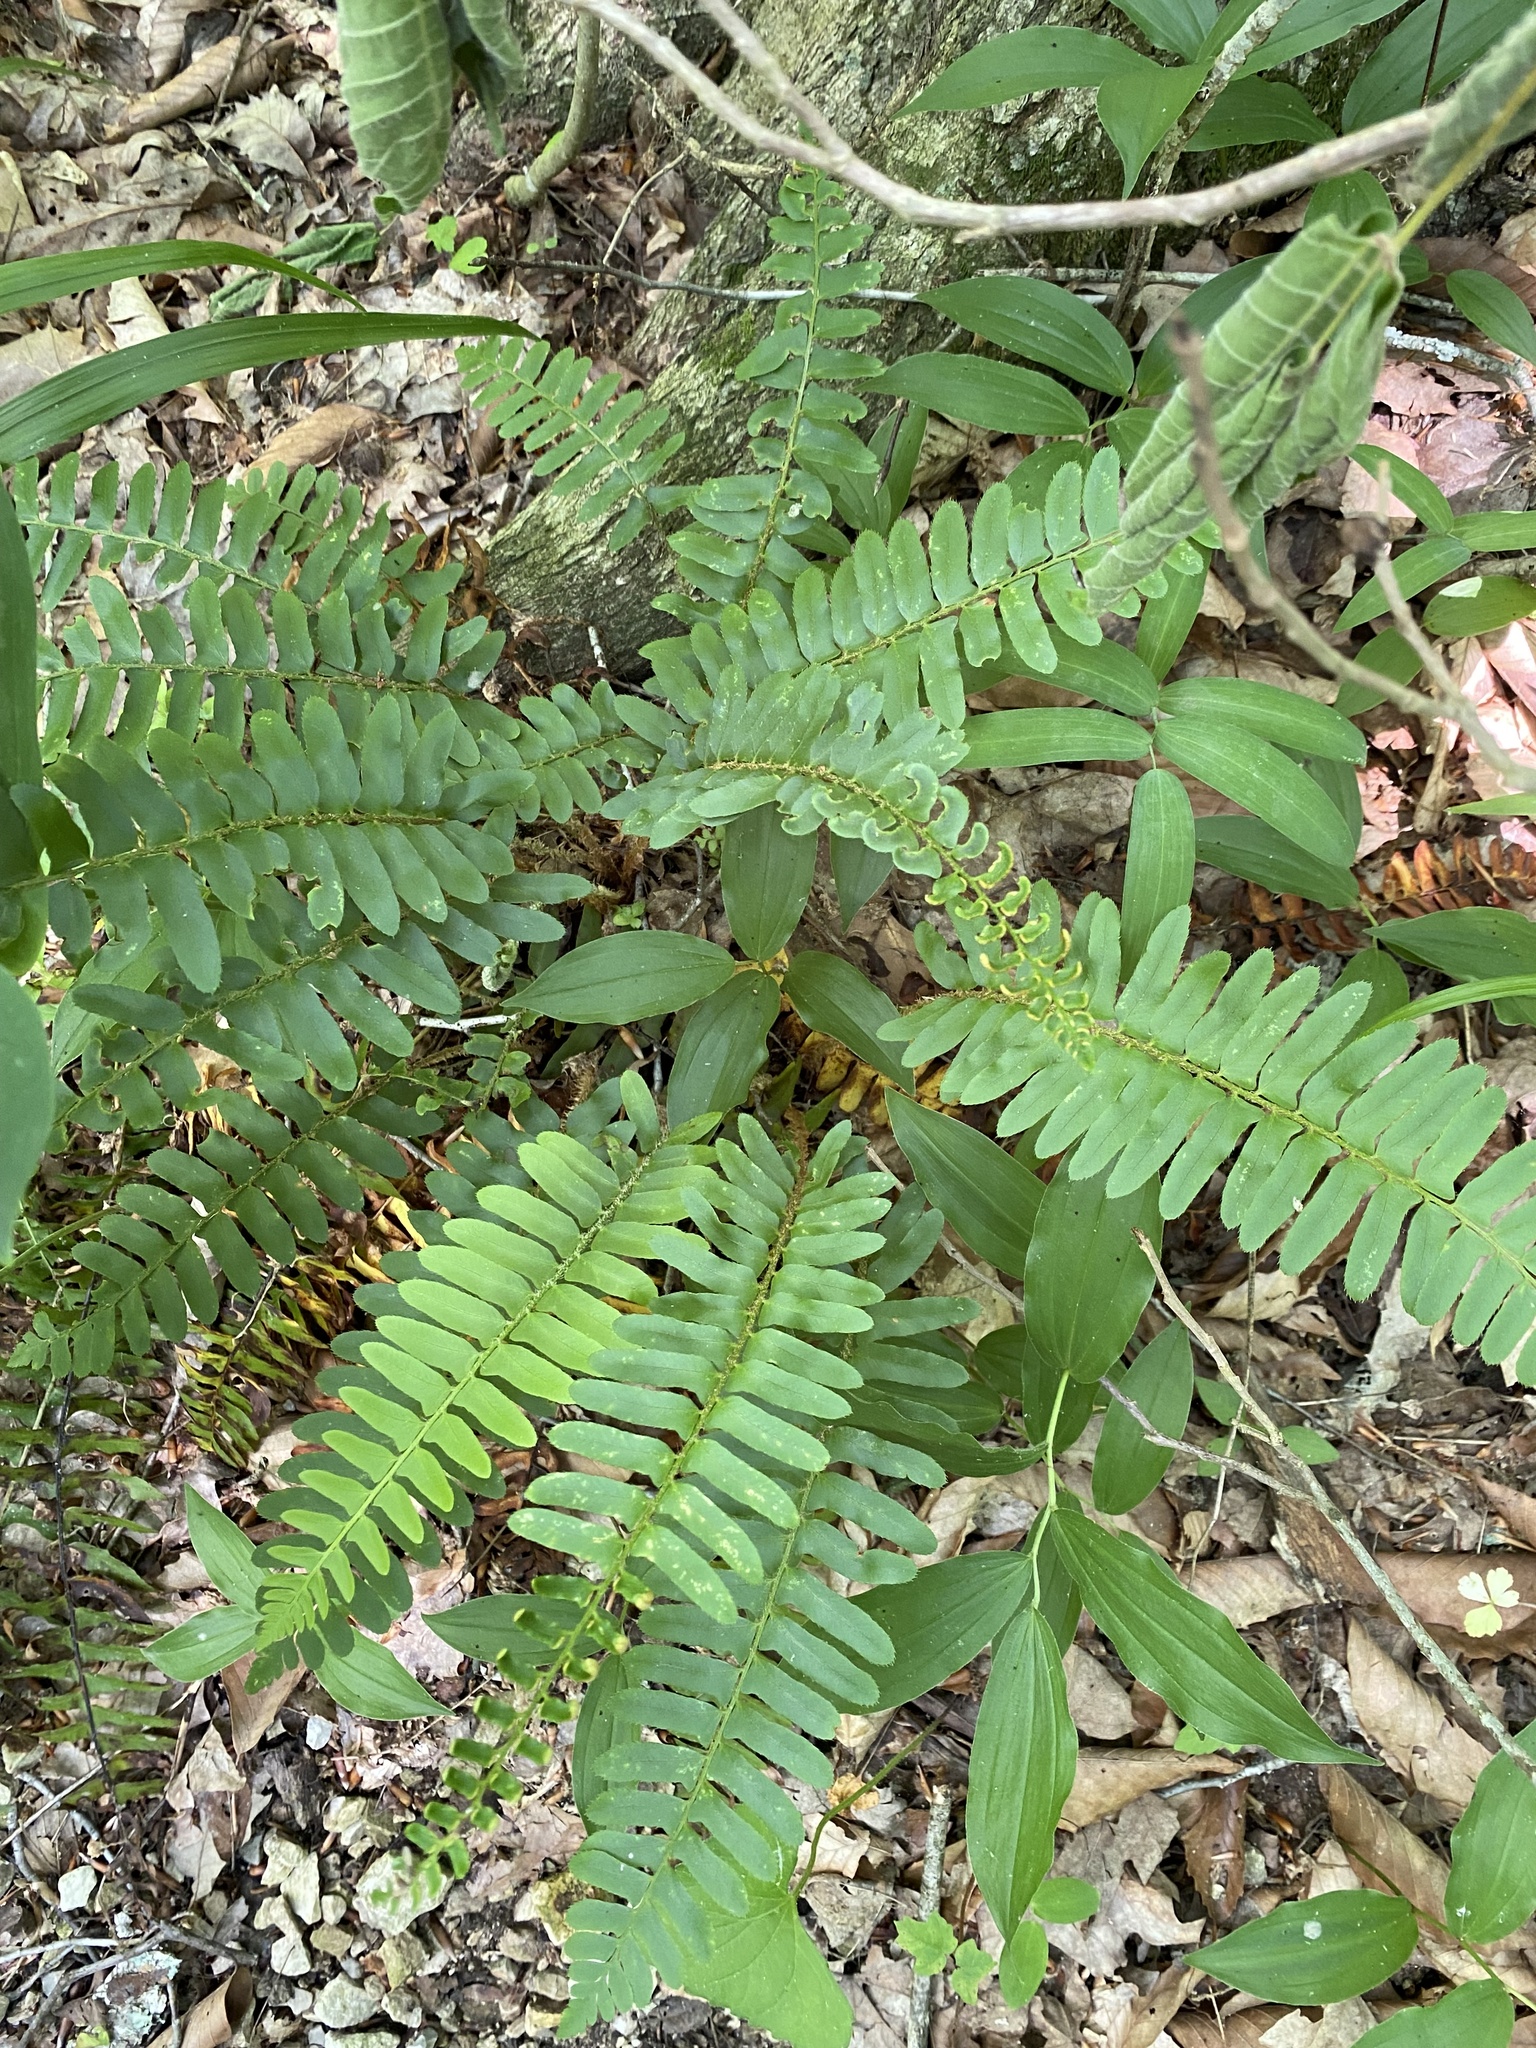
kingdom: Plantae
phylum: Tracheophyta
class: Polypodiopsida
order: Polypodiales
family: Dryopteridaceae
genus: Polystichum
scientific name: Polystichum acrostichoides
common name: Christmas fern
